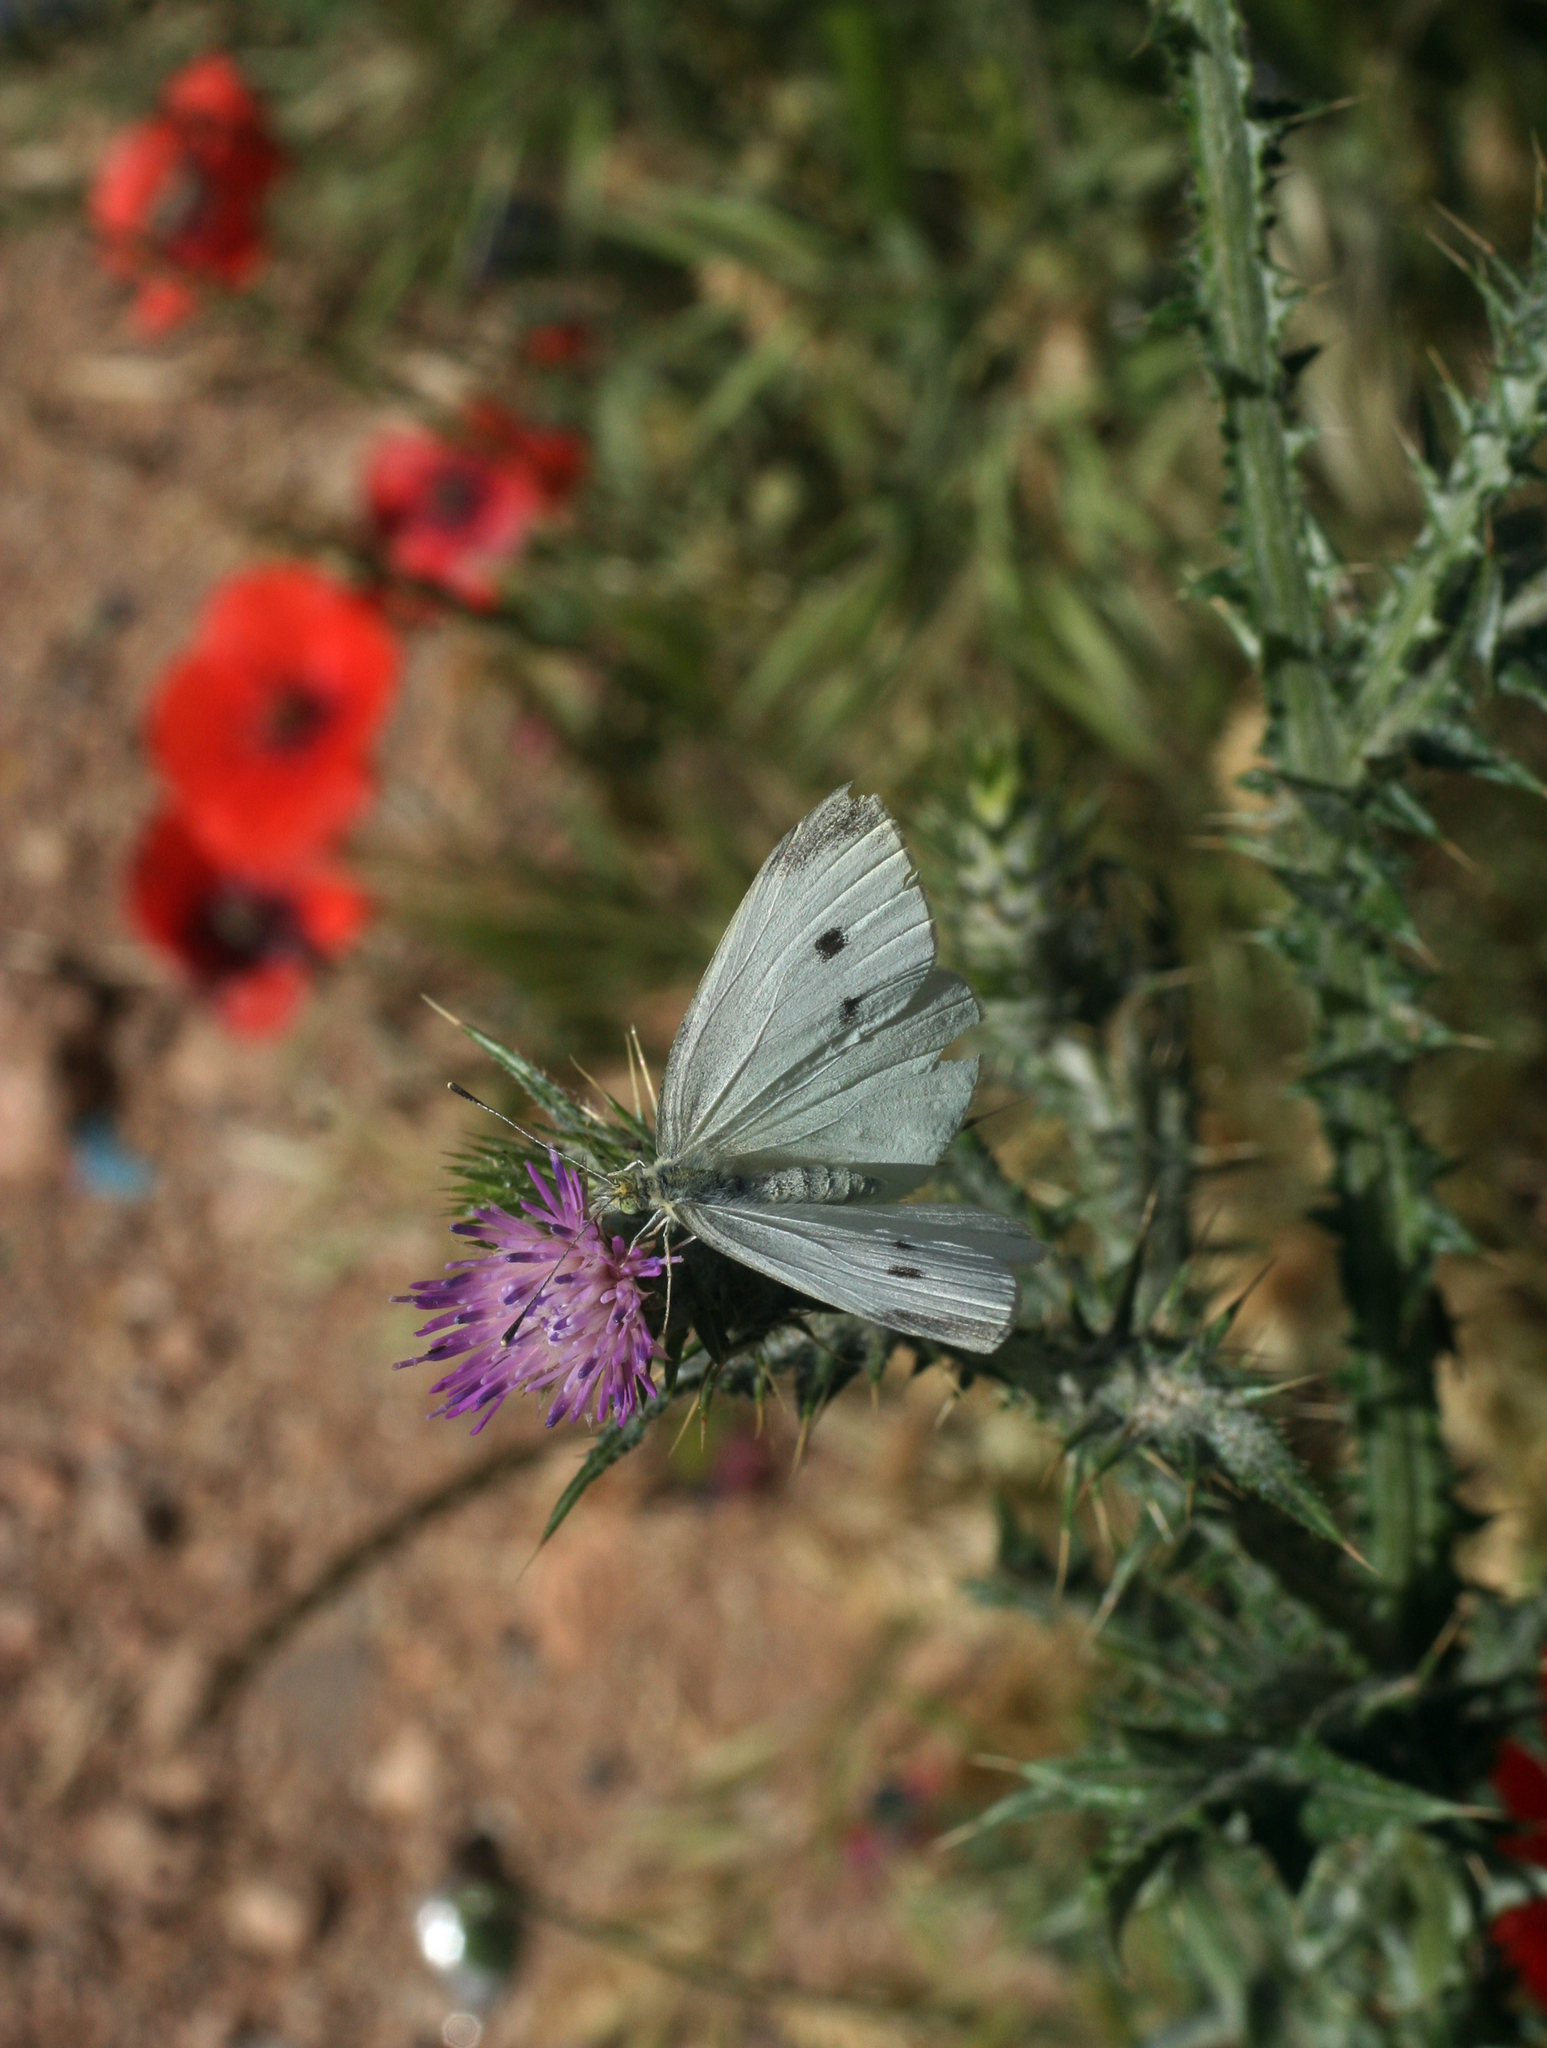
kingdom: Animalia
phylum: Arthropoda
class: Insecta
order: Lepidoptera
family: Pieridae
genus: Pieris
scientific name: Pieris rapae
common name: Small white
